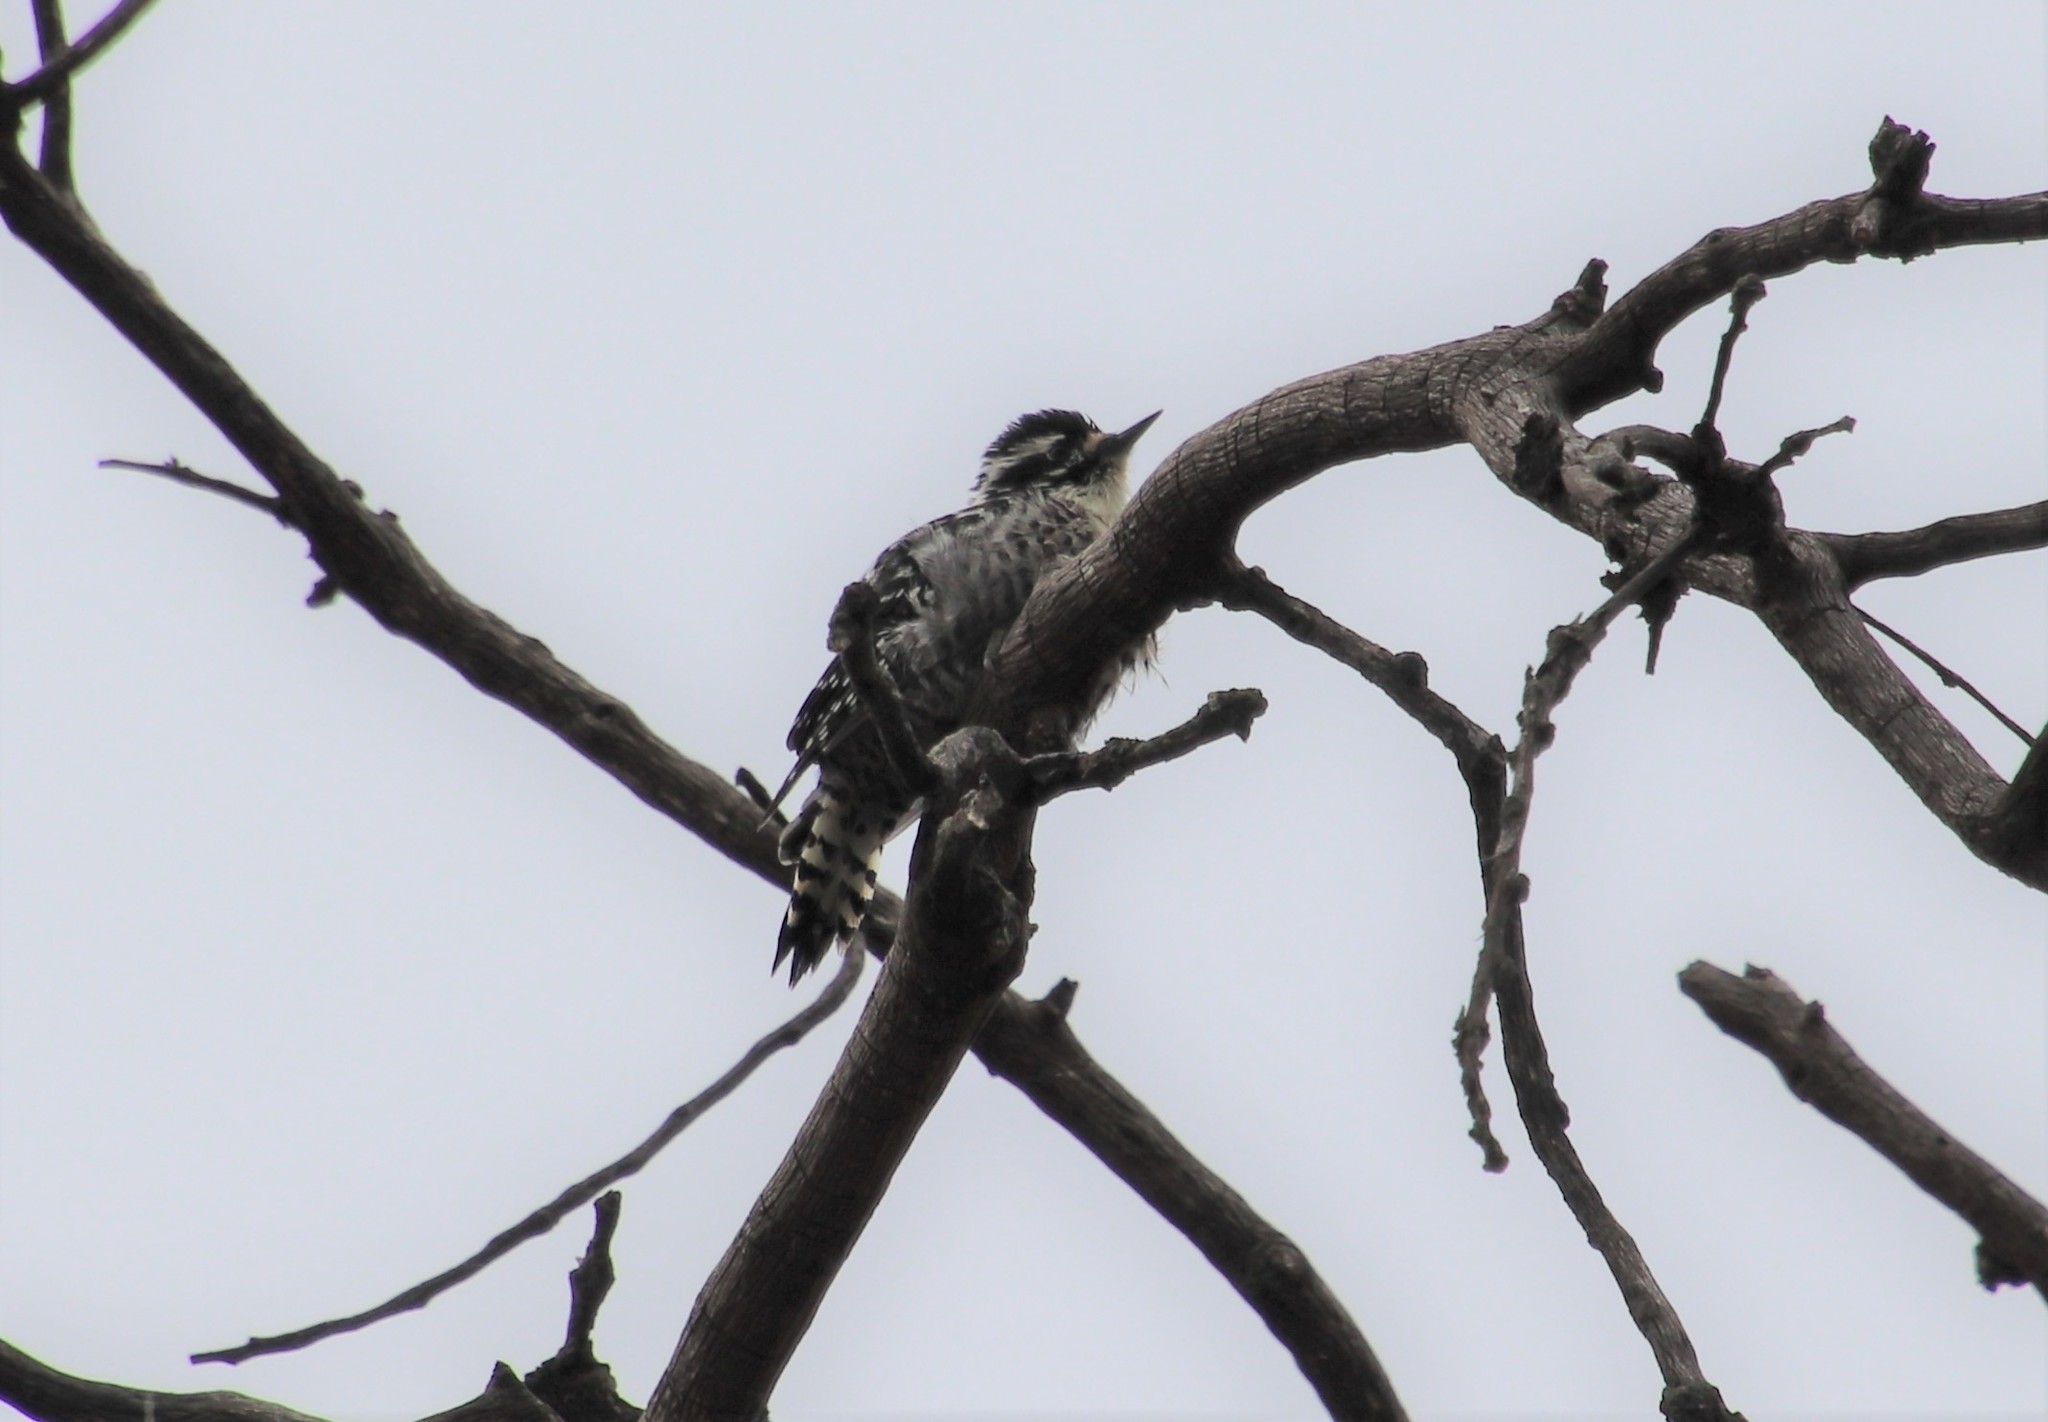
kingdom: Animalia
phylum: Chordata
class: Aves
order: Piciformes
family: Picidae
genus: Dryobates
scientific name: Dryobates nuttallii
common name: Nuttall's woodpecker
